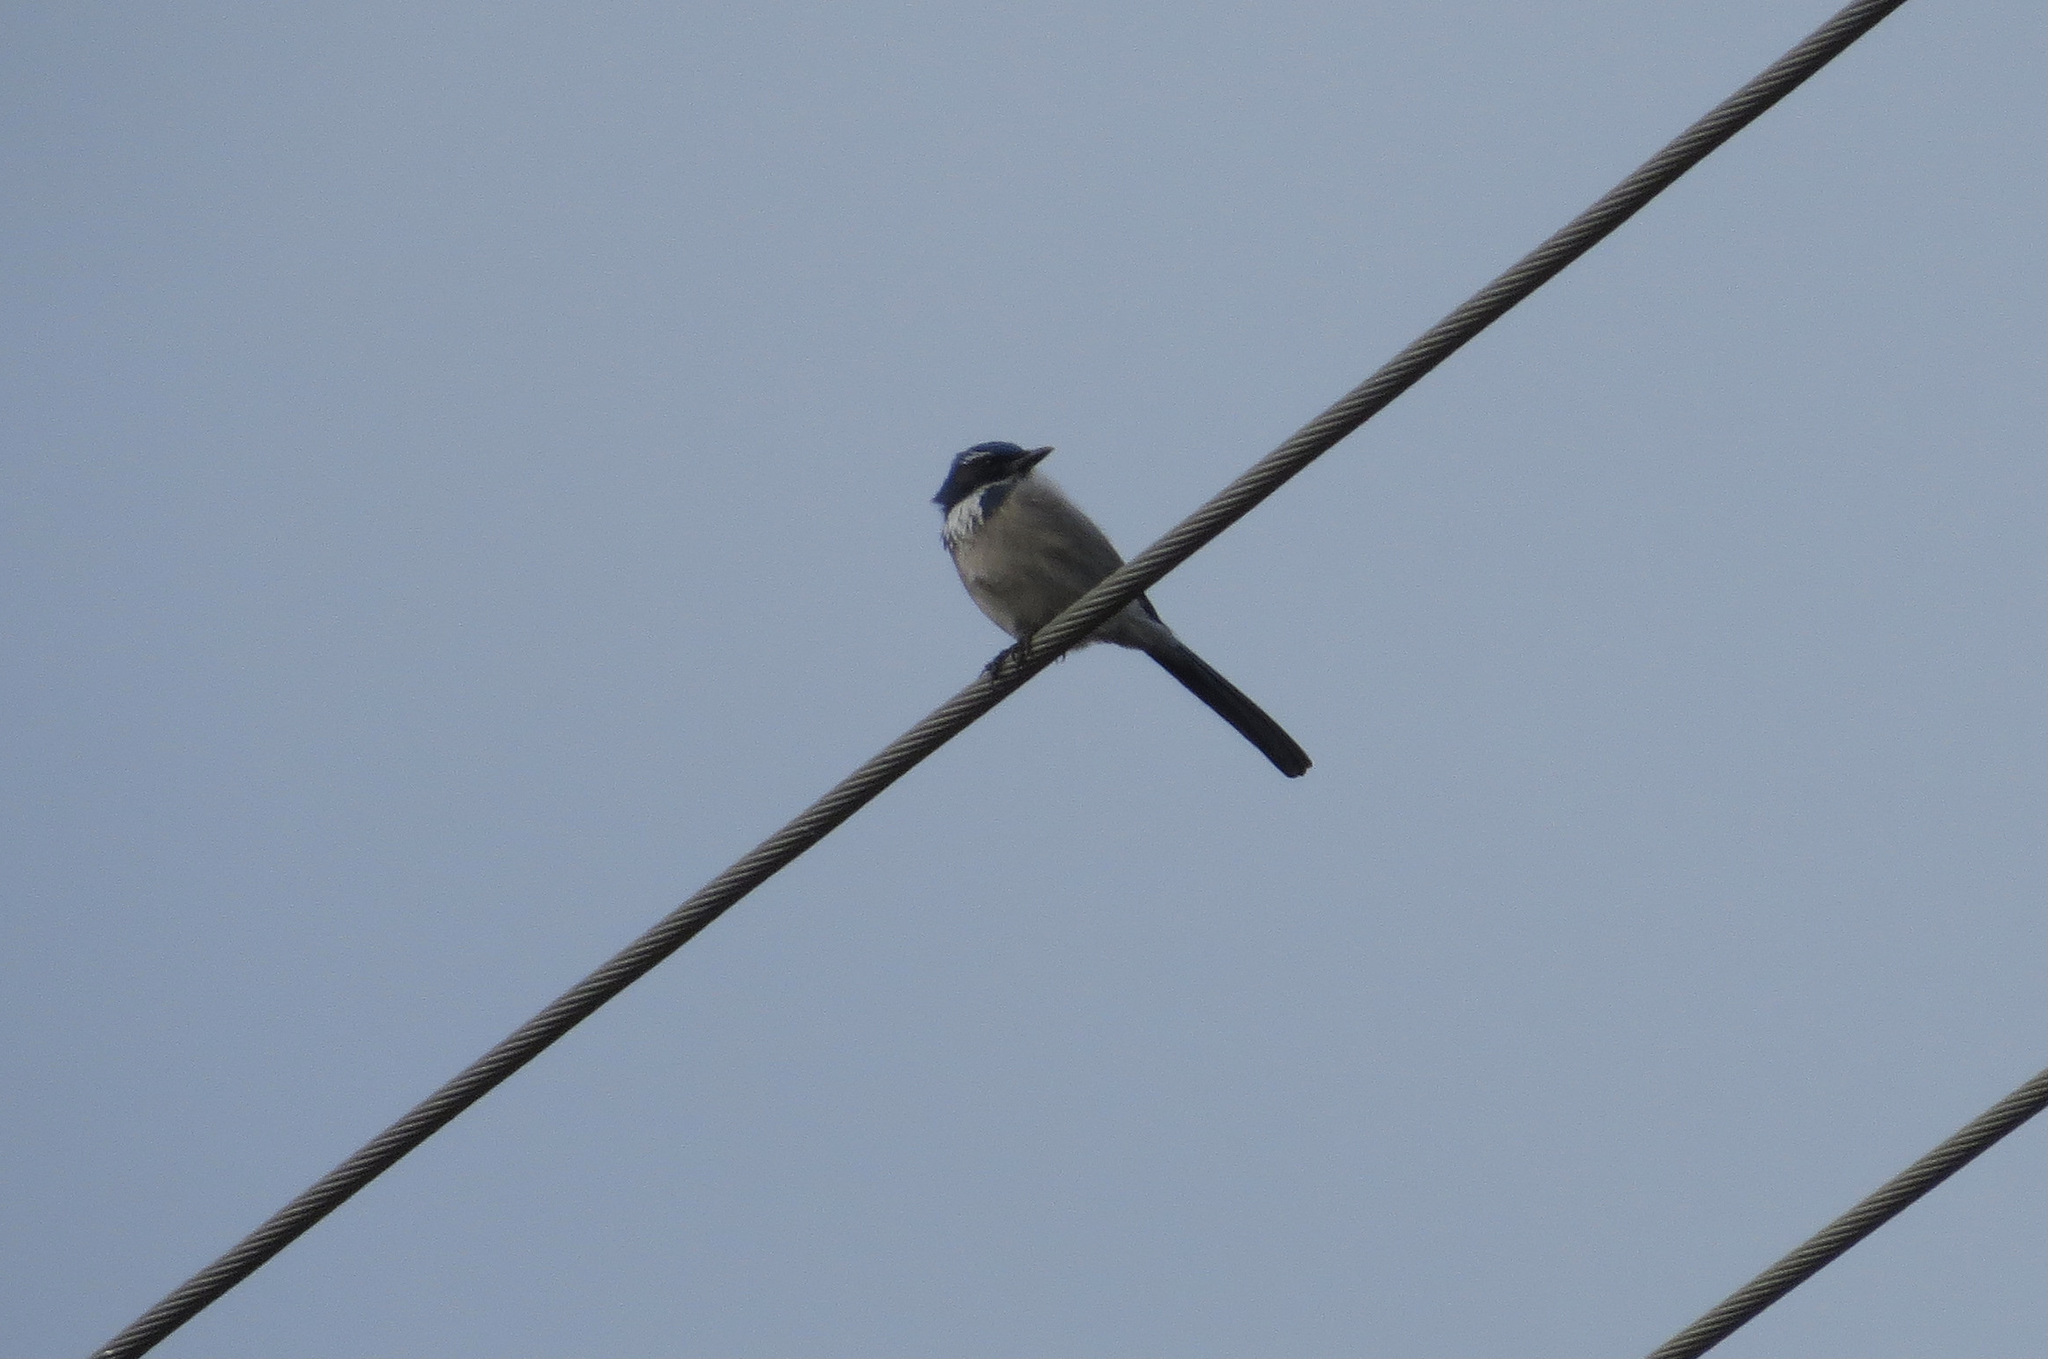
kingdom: Animalia
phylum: Chordata
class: Aves
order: Passeriformes
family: Corvidae
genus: Aphelocoma
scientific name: Aphelocoma californica
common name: California scrub-jay
